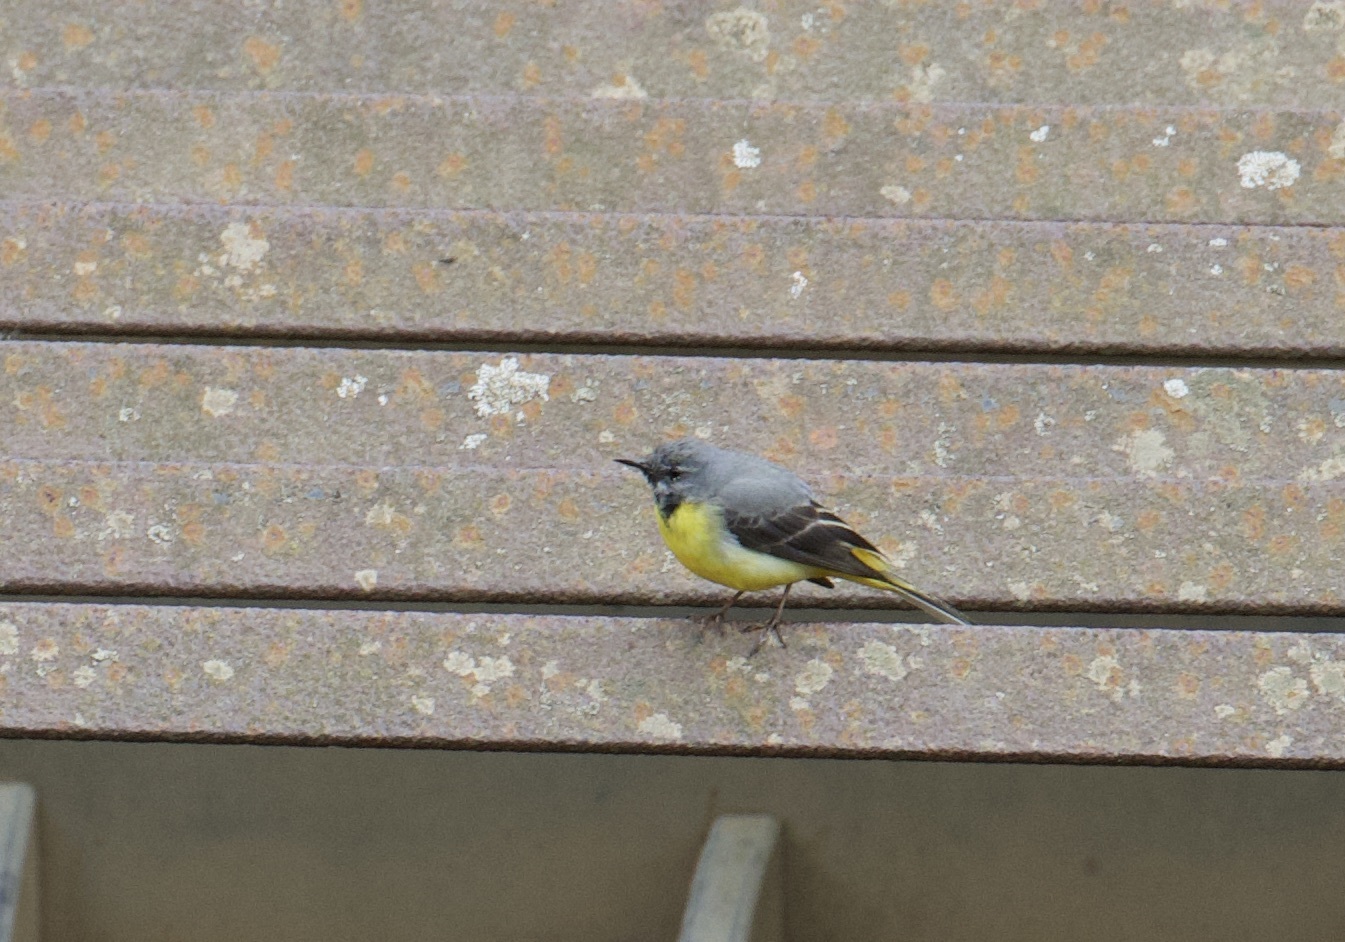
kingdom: Animalia
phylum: Chordata
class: Aves
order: Passeriformes
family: Motacillidae
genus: Motacilla
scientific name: Motacilla cinerea
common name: Grey wagtail
